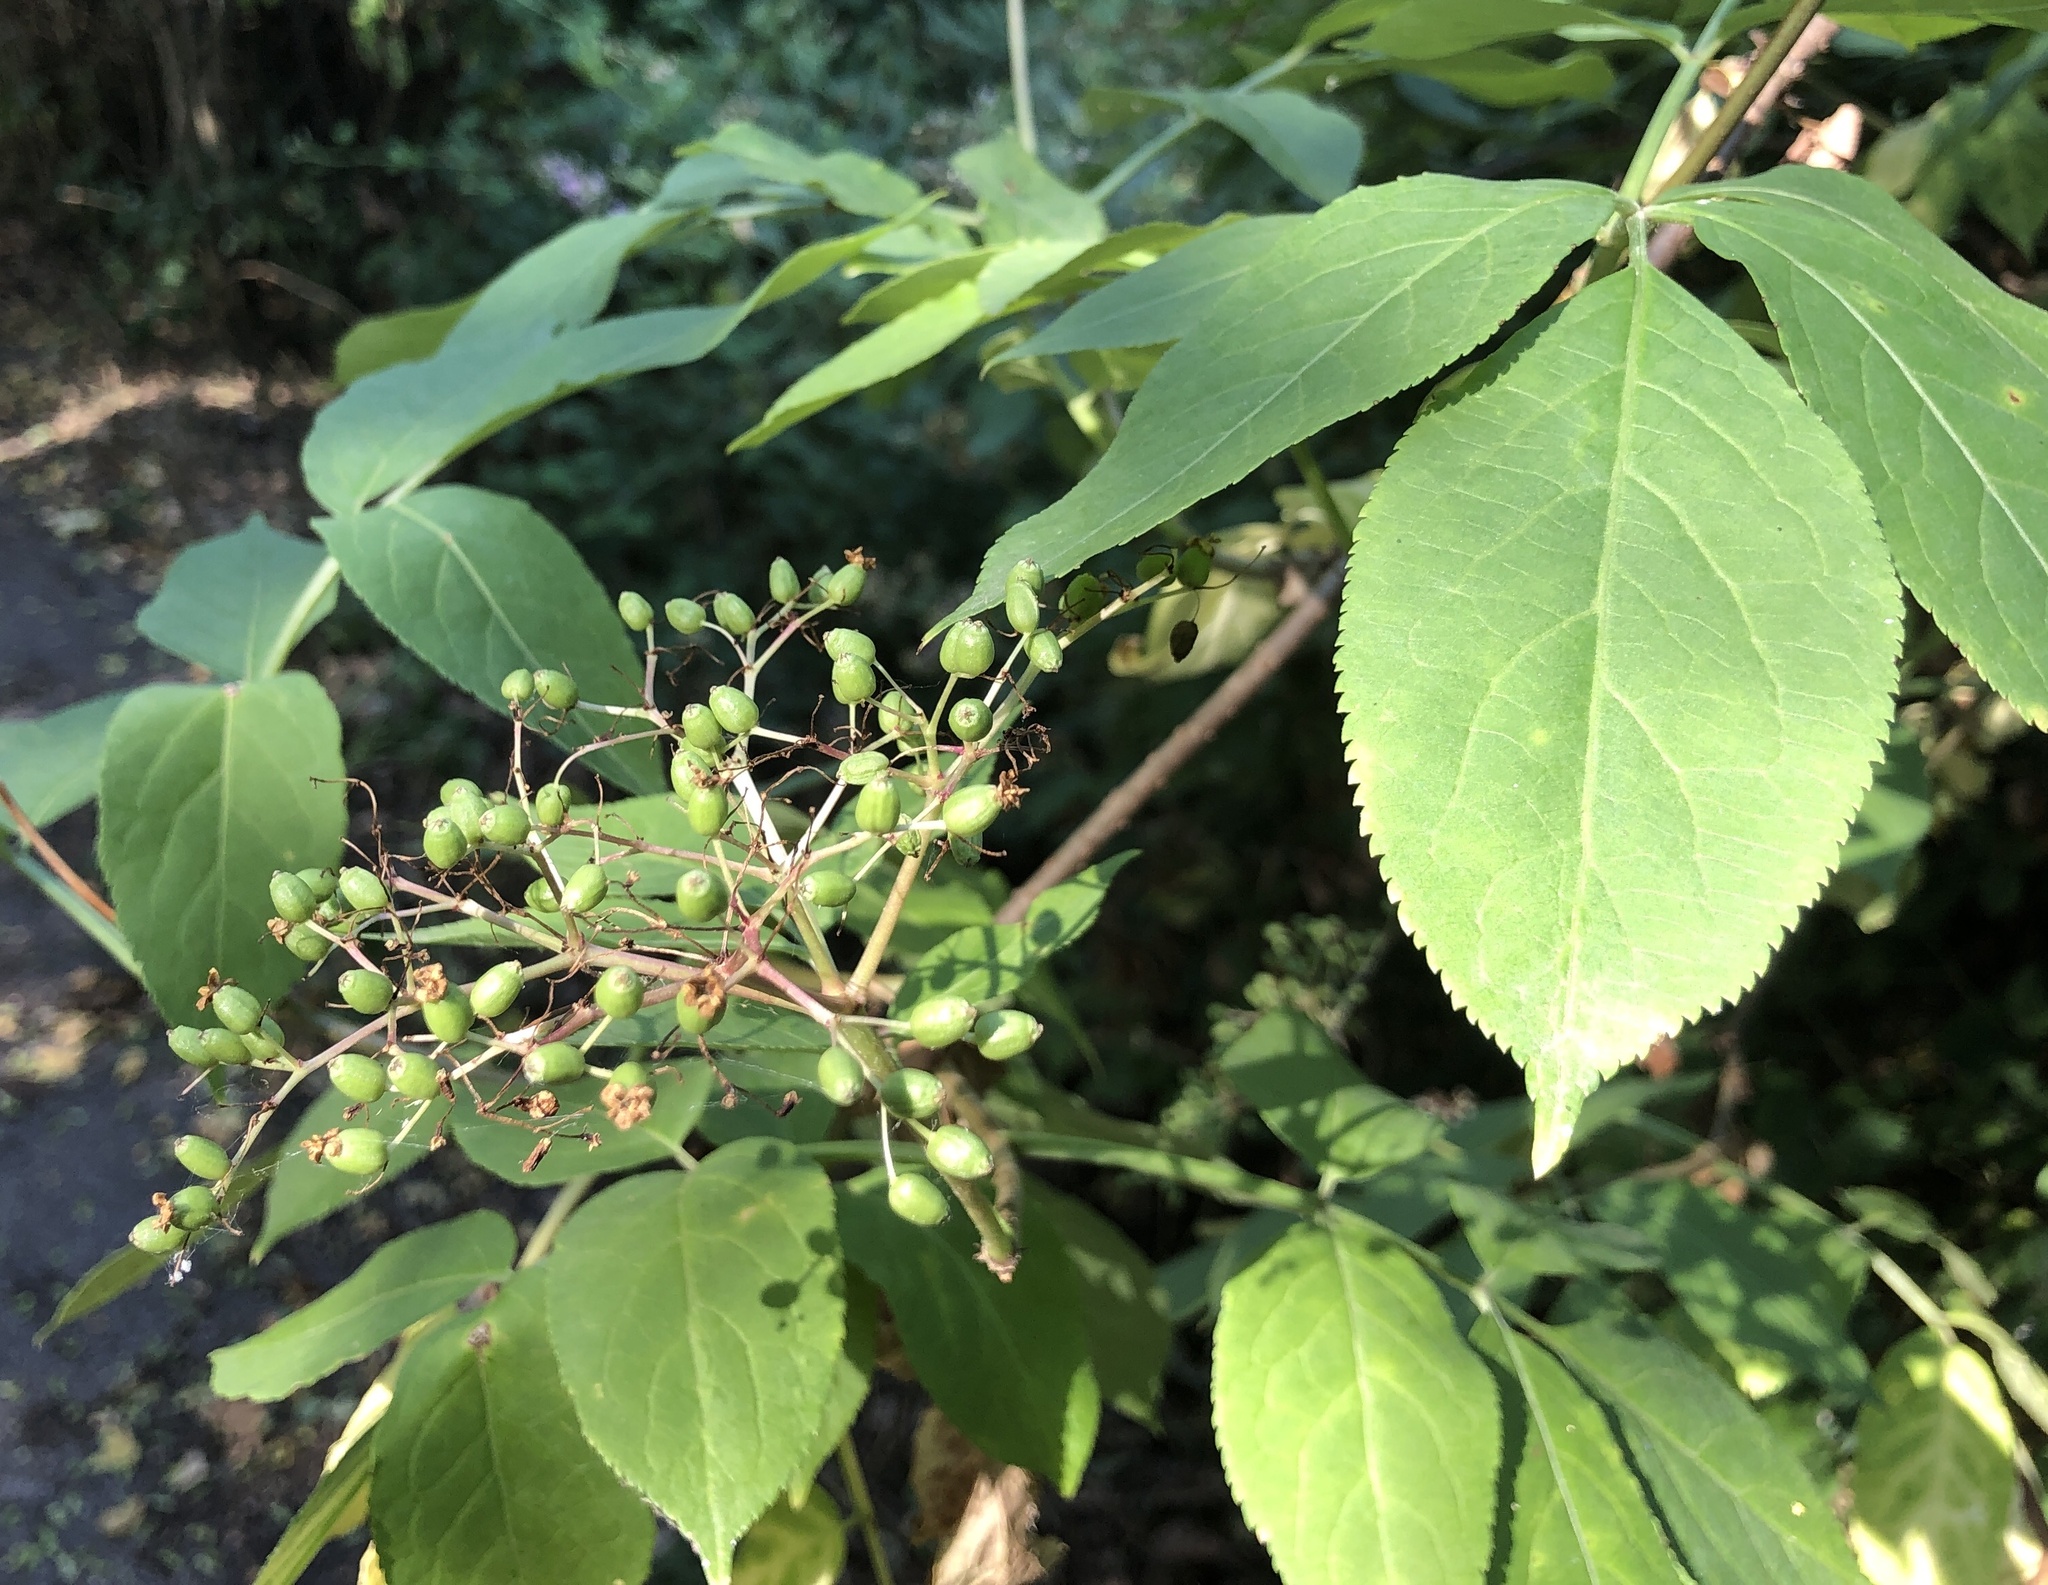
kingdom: Plantae
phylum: Tracheophyta
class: Magnoliopsida
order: Dipsacales
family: Viburnaceae
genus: Sambucus
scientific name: Sambucus nigra
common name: Elder
